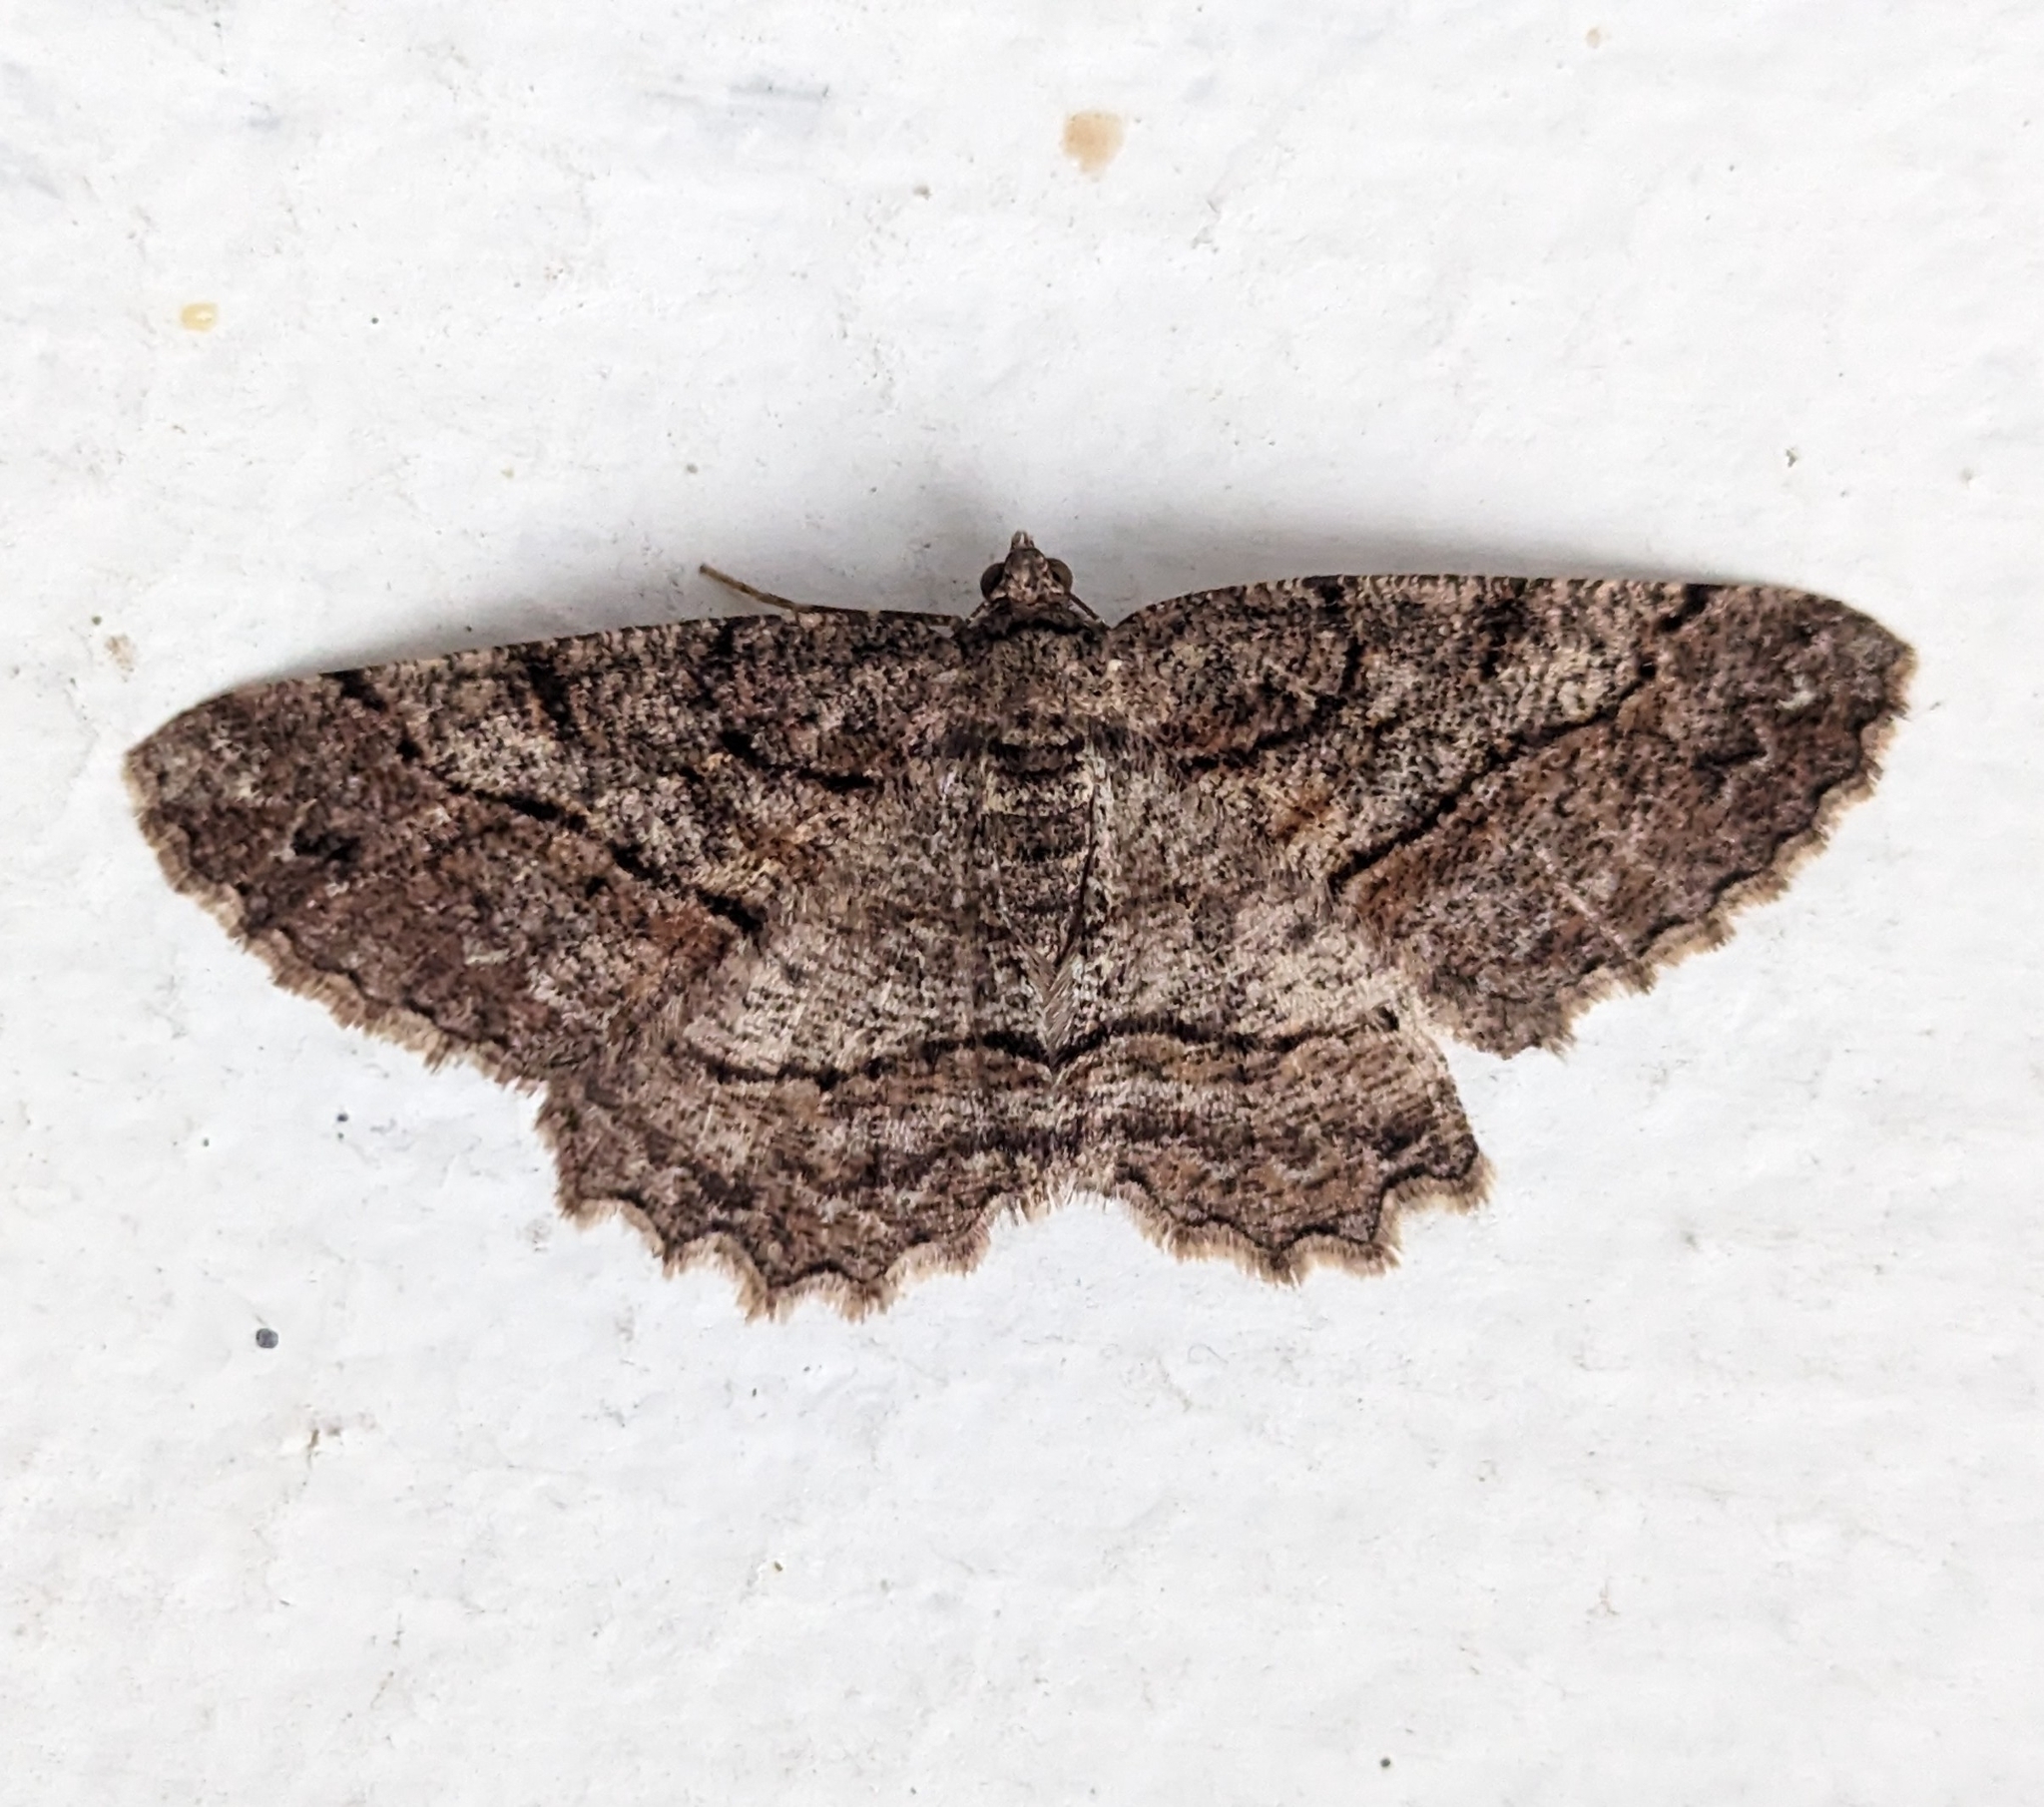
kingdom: Animalia
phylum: Arthropoda
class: Insecta
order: Lepidoptera
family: Geometridae
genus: Neoalcis
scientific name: Neoalcis californiaria
